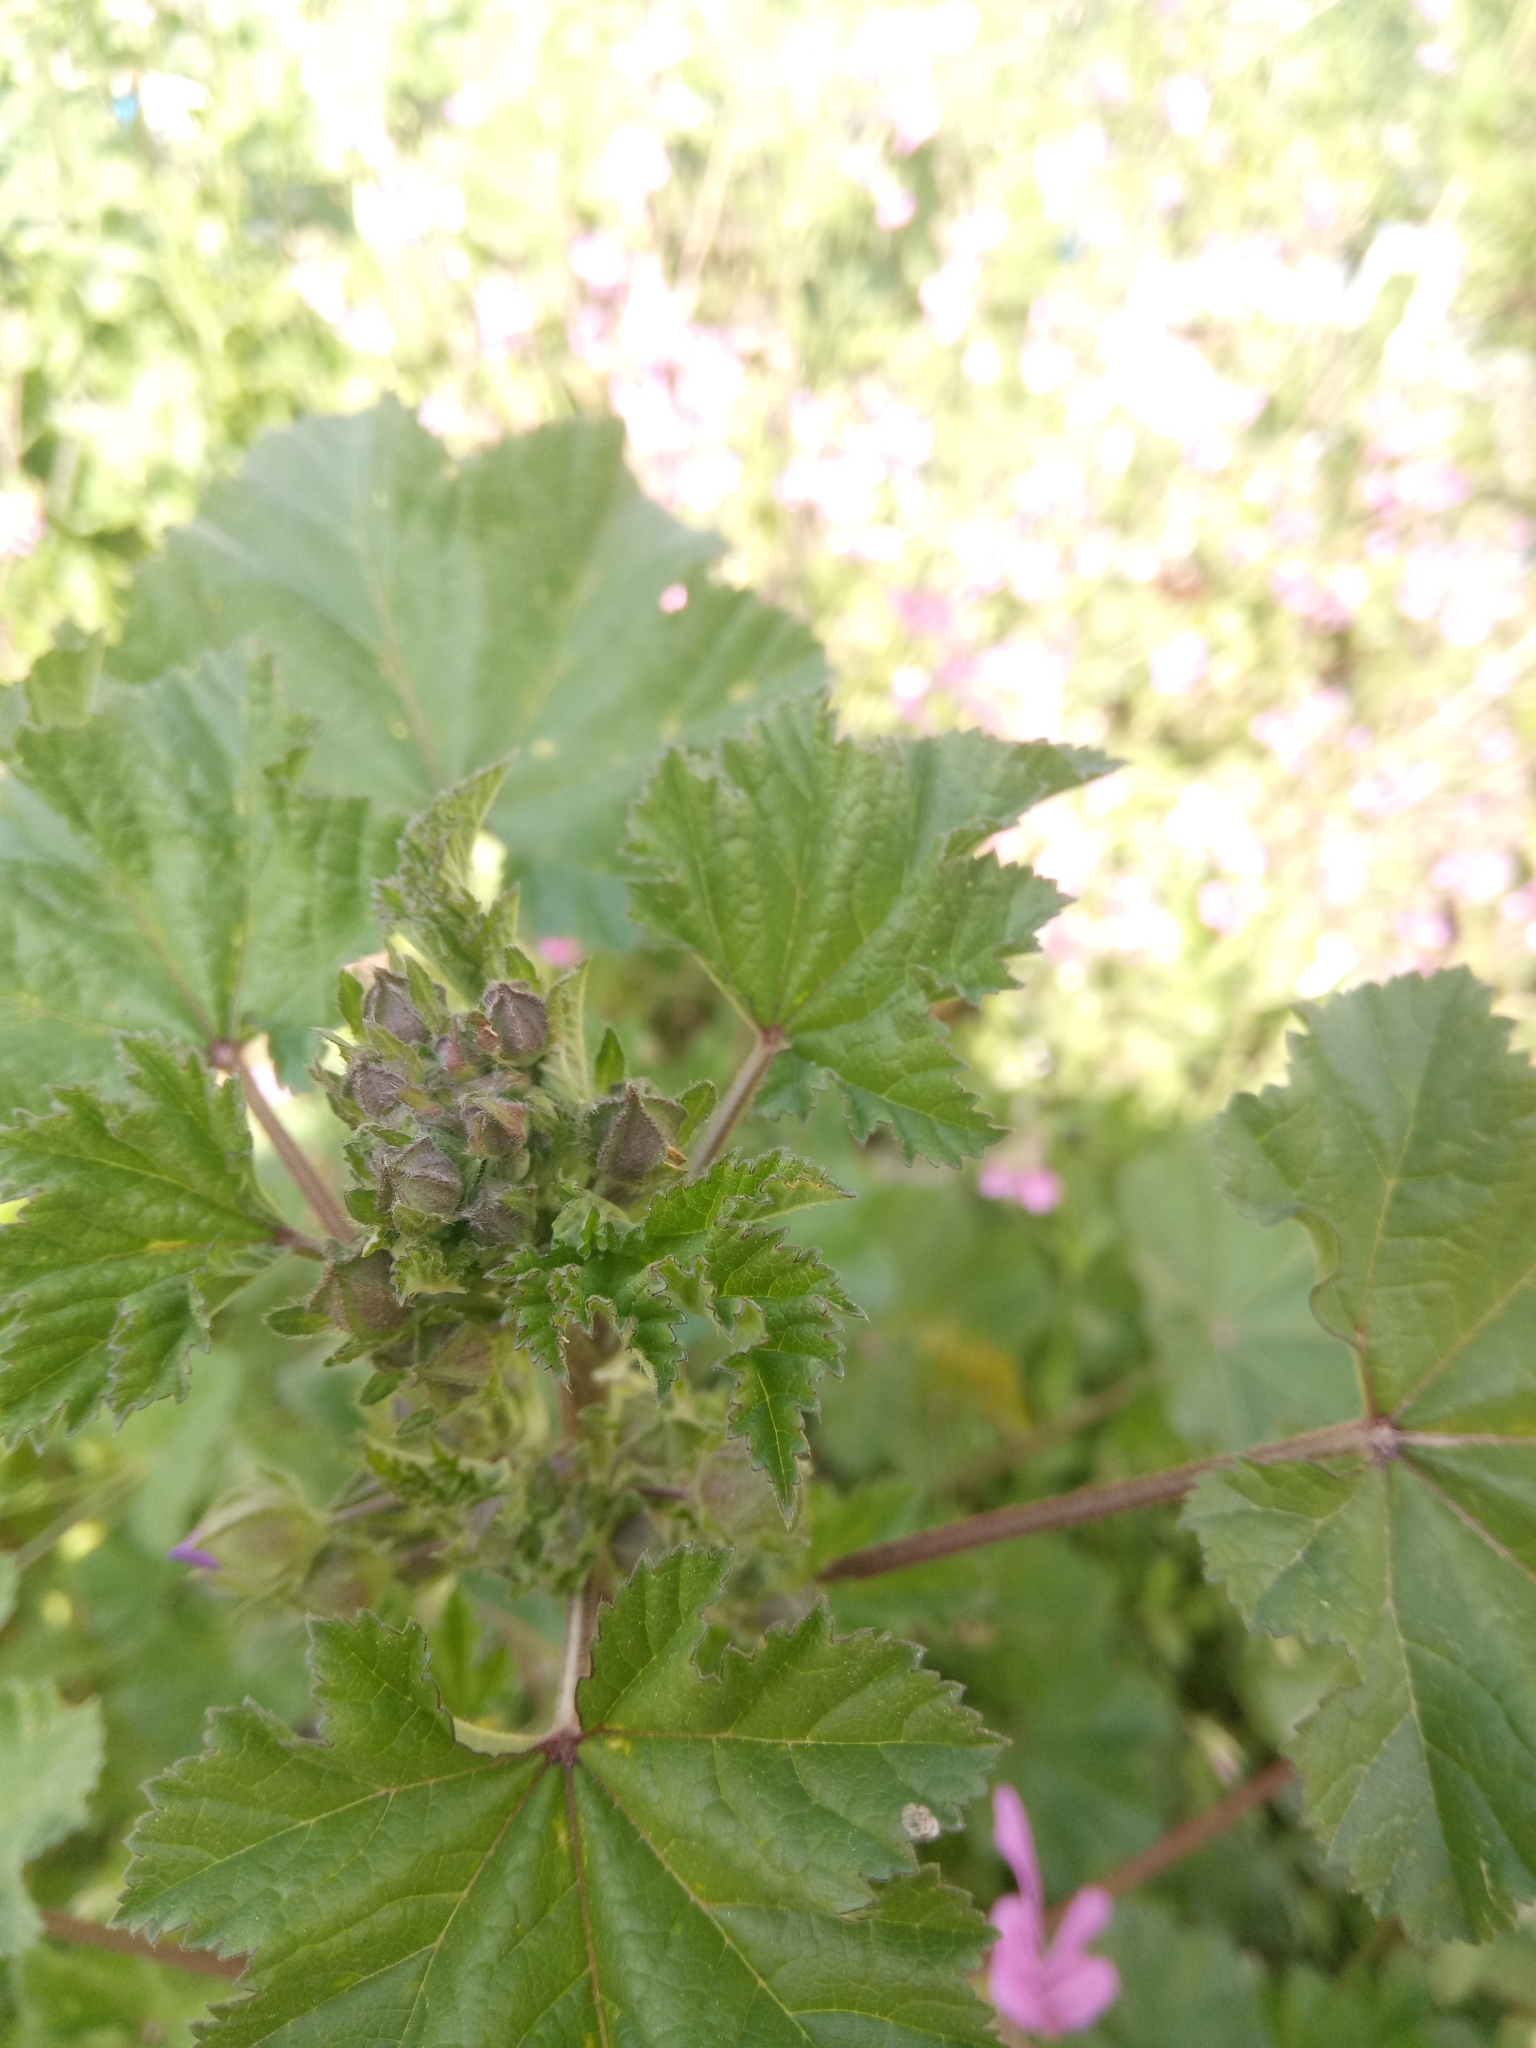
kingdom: Plantae
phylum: Tracheophyta
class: Magnoliopsida
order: Malvales
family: Malvaceae
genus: Malva
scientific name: Malva sylvestris
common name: Common mallow
